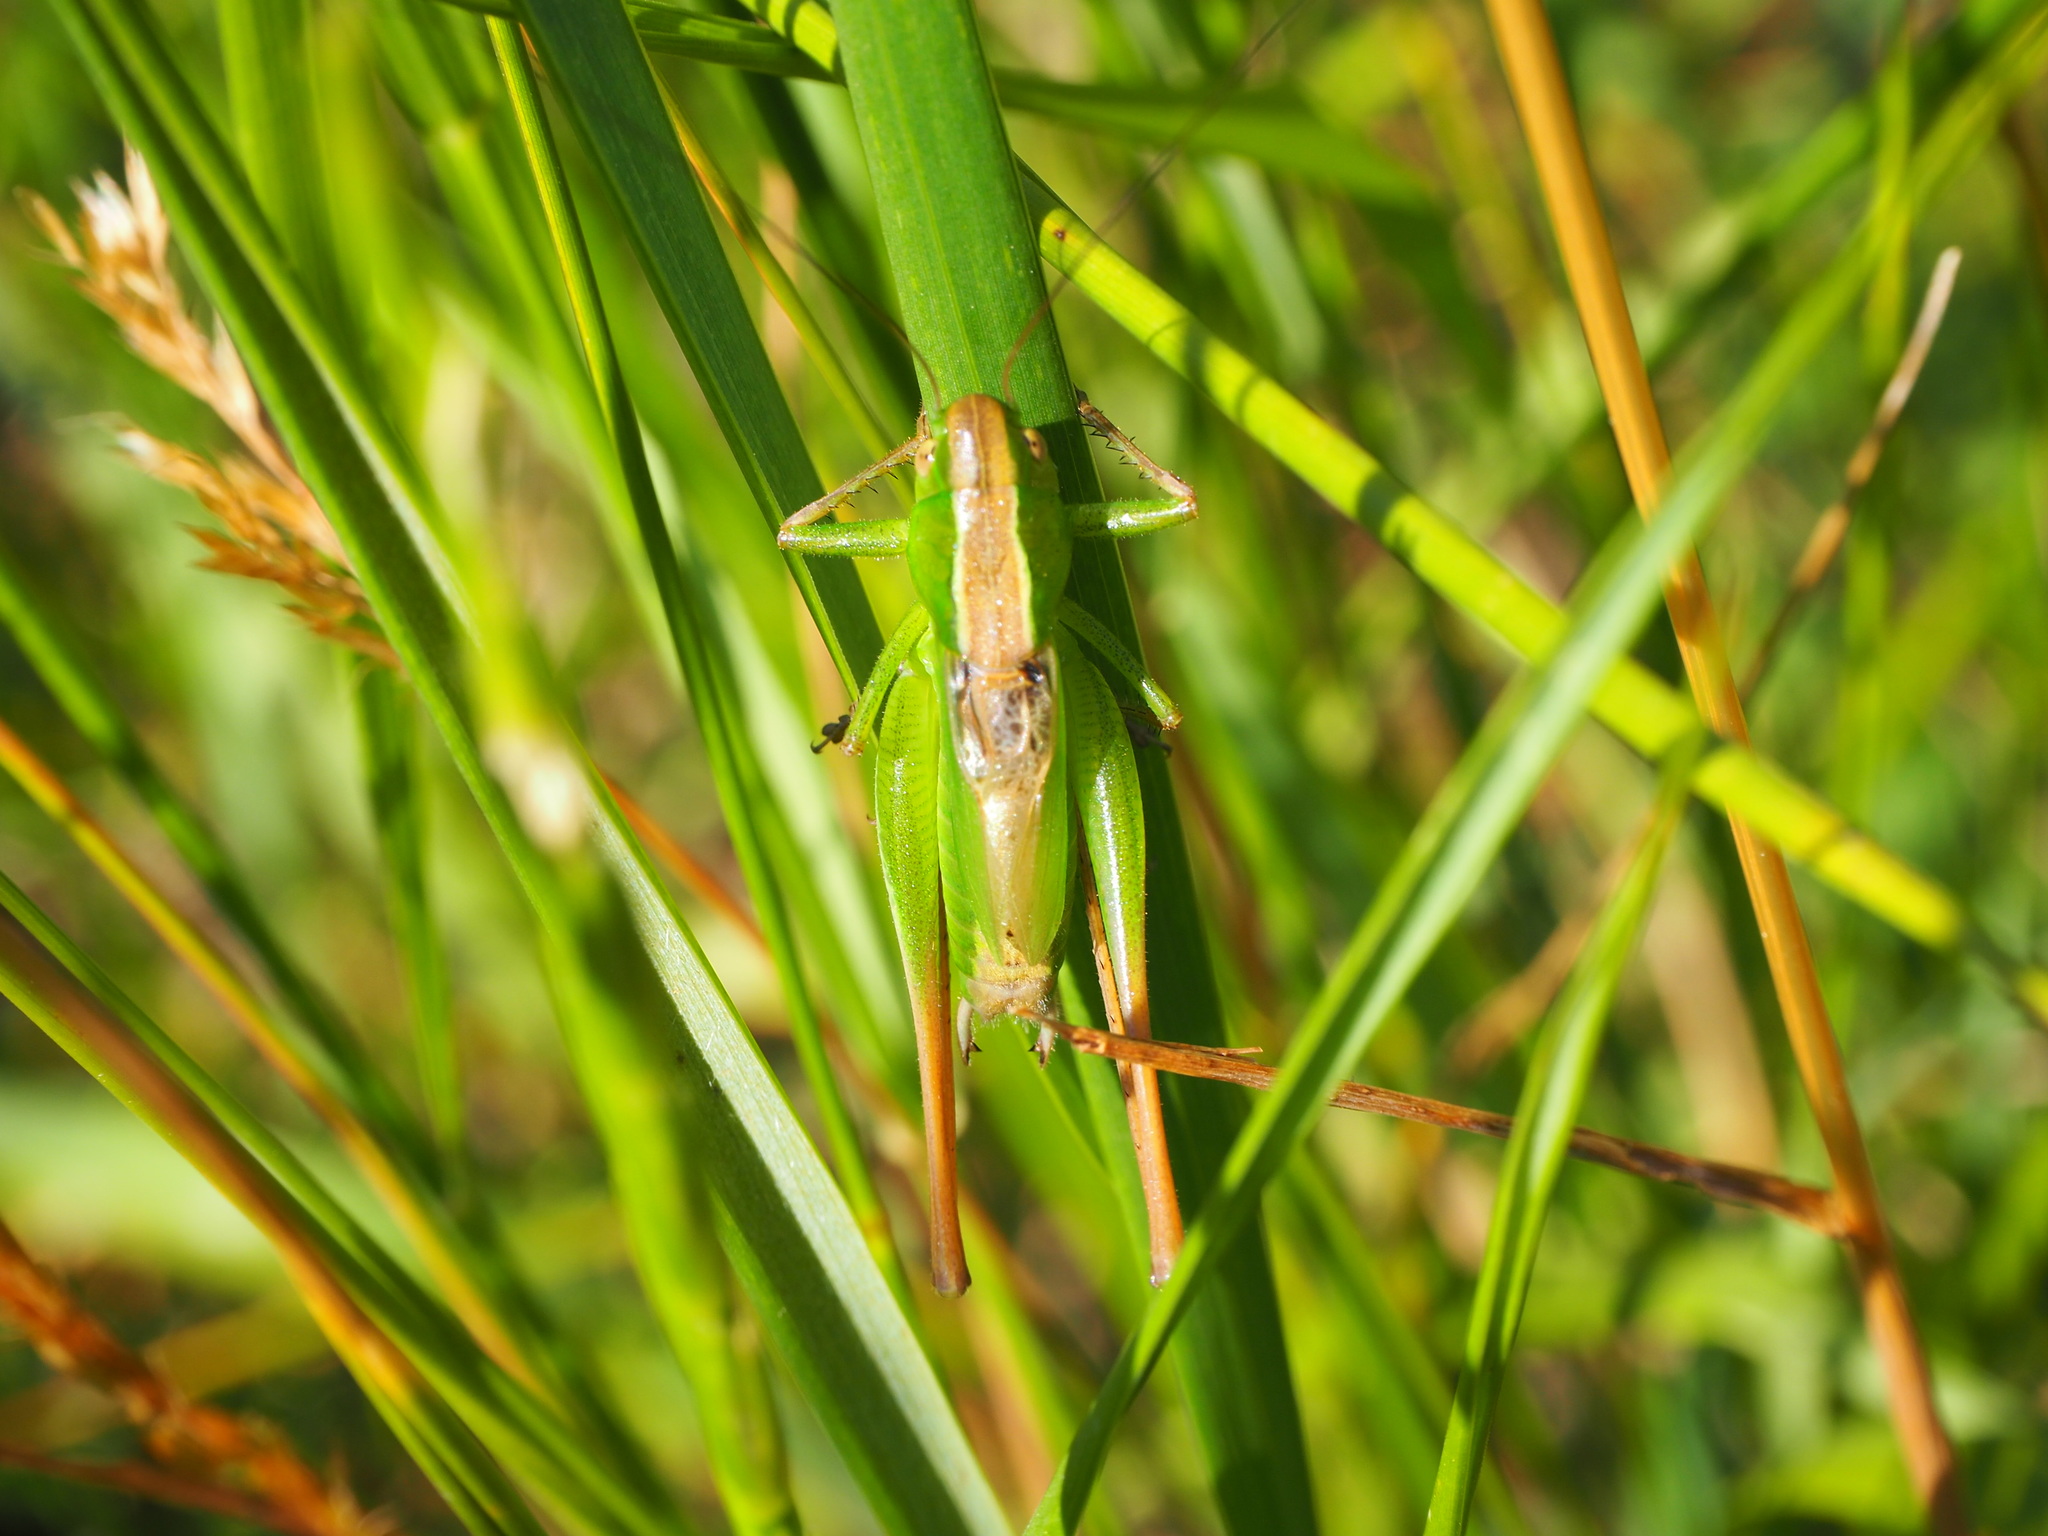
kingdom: Animalia
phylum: Arthropoda
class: Insecta
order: Orthoptera
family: Tettigoniidae
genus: Bicolorana
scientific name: Bicolorana bicolor
